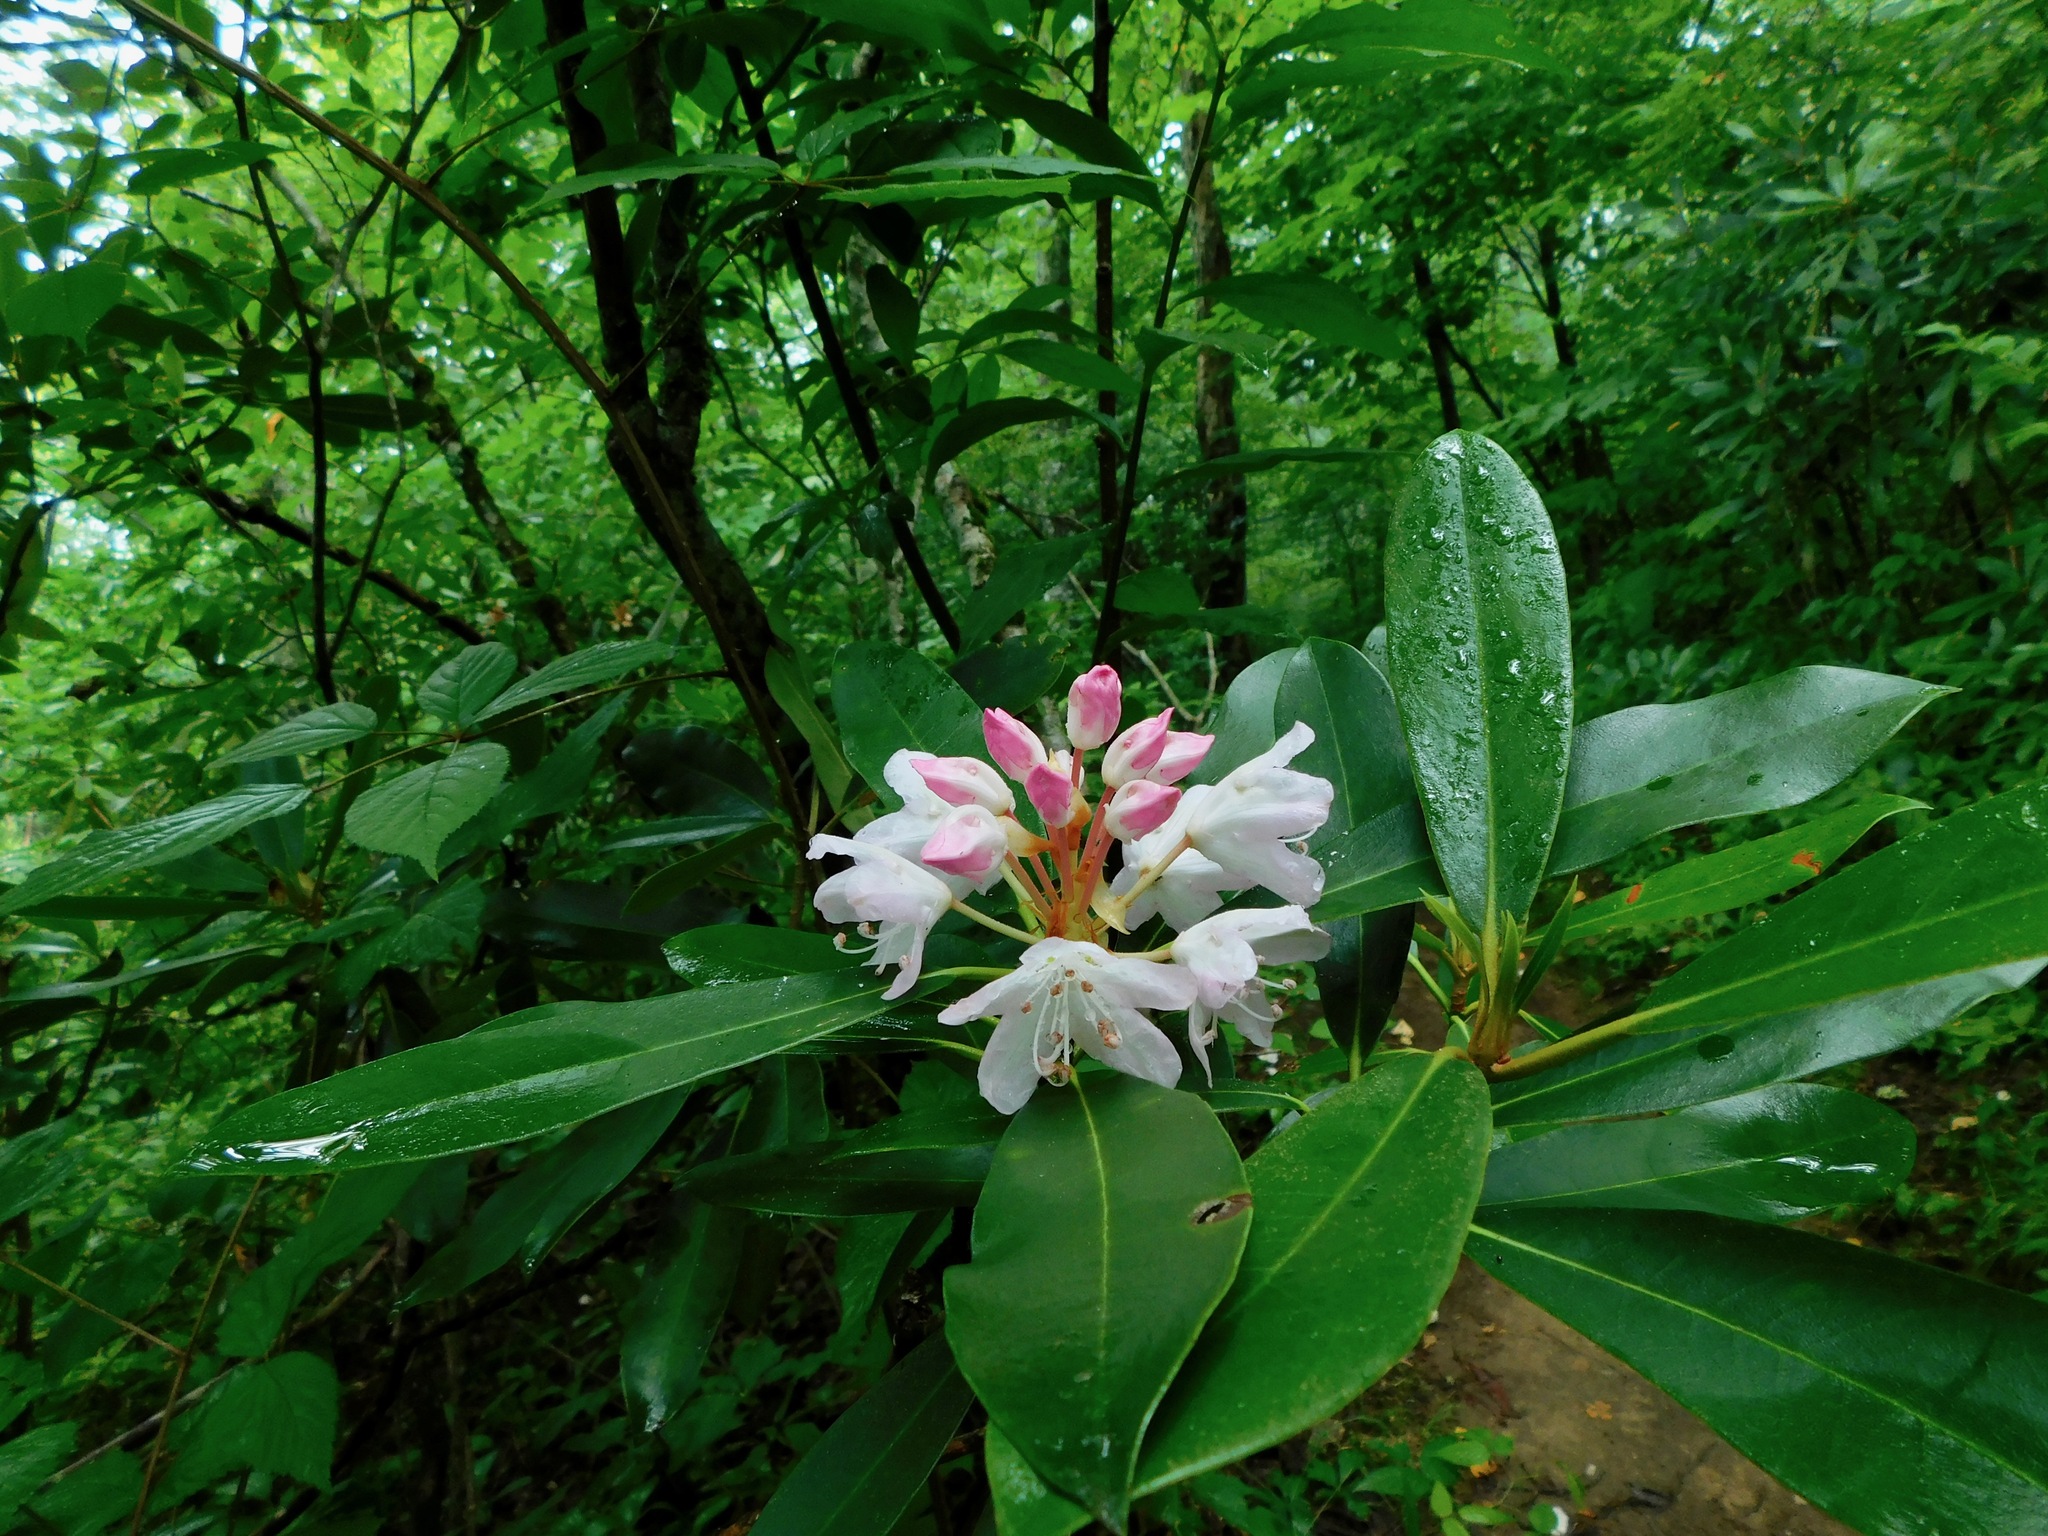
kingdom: Plantae
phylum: Tracheophyta
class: Magnoliopsida
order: Ericales
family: Ericaceae
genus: Rhododendron
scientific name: Rhododendron maximum
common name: Great rhododendron
